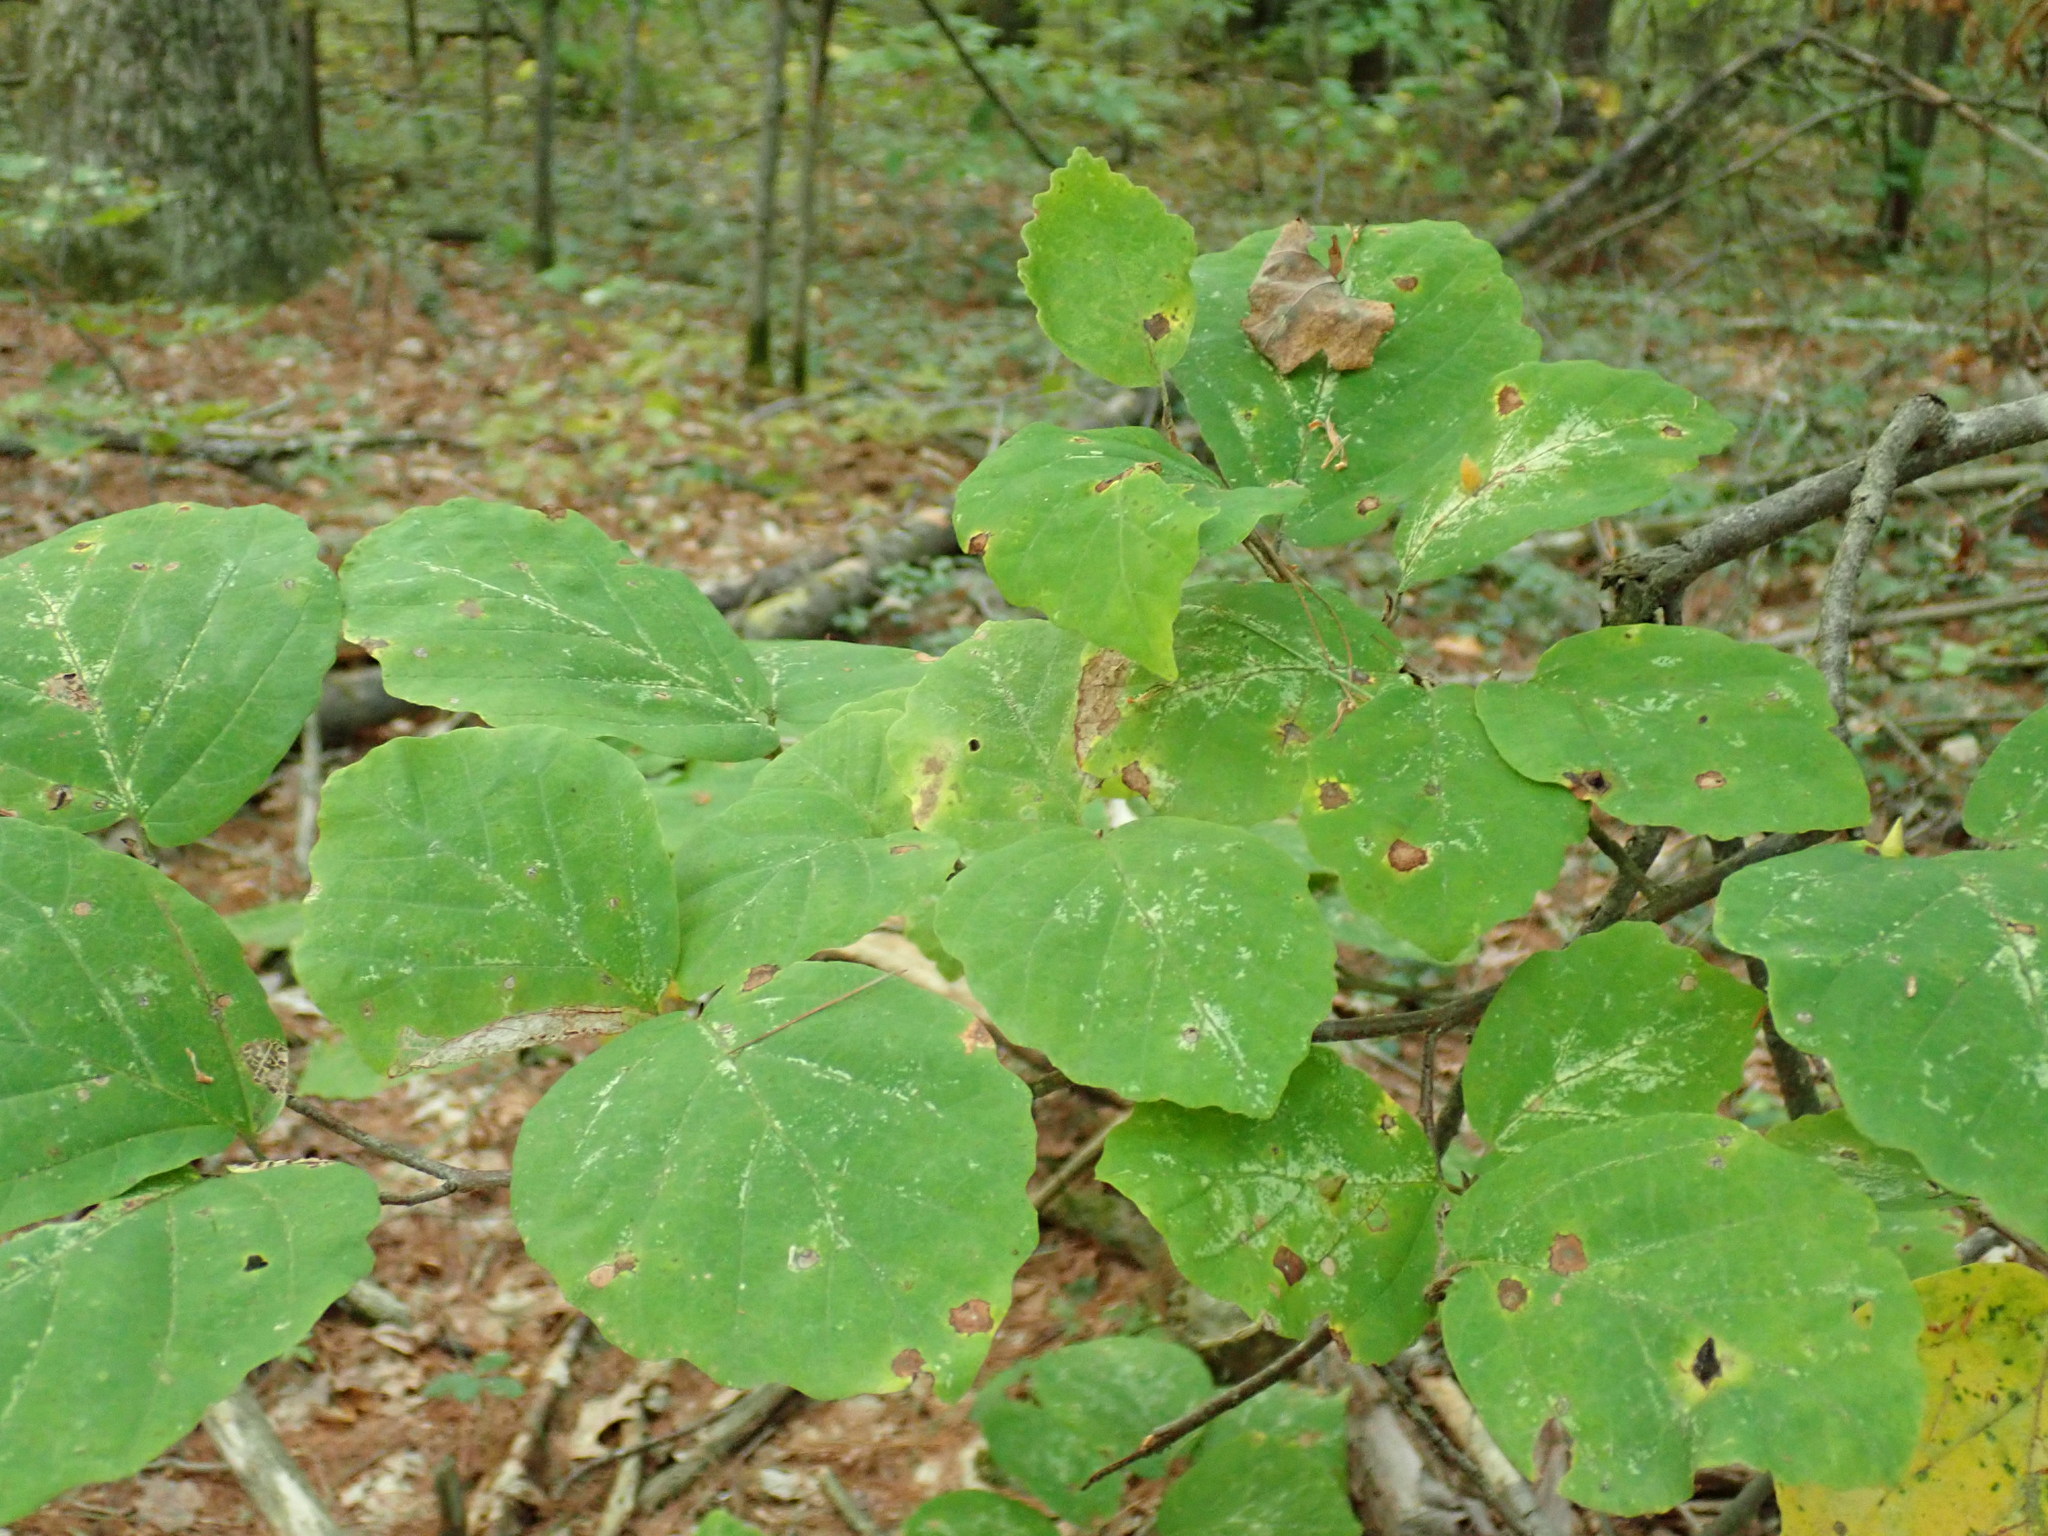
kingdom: Plantae
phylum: Tracheophyta
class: Magnoliopsida
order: Saxifragales
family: Hamamelidaceae
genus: Hamamelis
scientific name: Hamamelis virginiana
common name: Witch-hazel
